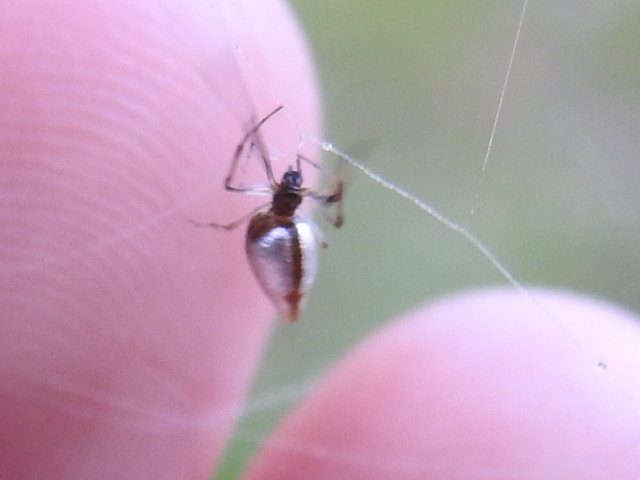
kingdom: Animalia
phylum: Arthropoda
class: Arachnida
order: Araneae
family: Theridiidae
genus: Argyrodes
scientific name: Argyrodes elevatus
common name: Cobweb spiders
